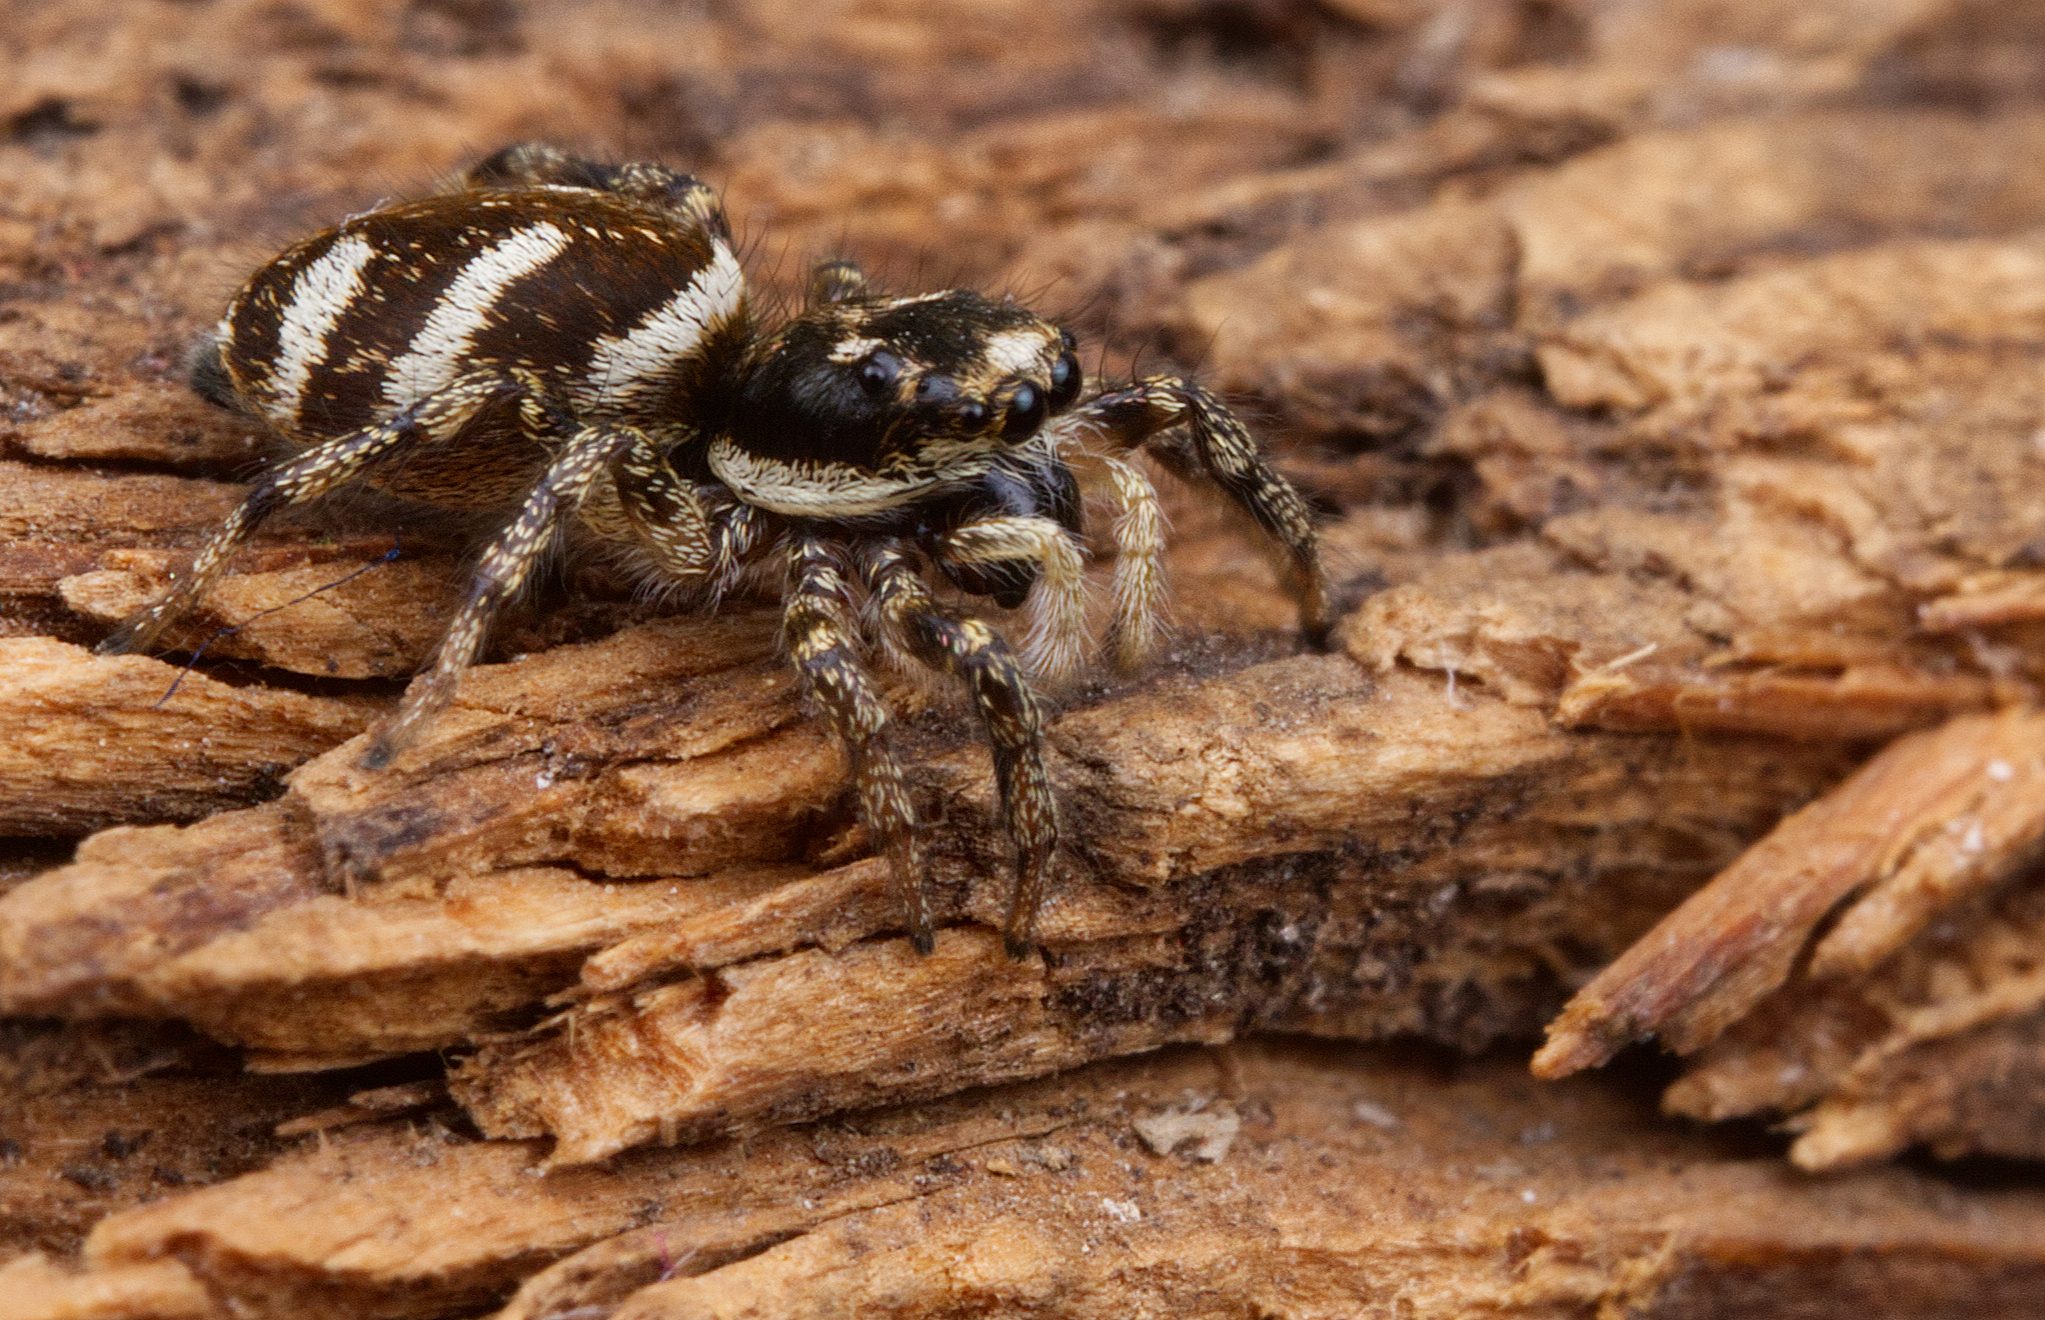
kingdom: Animalia
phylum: Arthropoda
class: Arachnida
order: Araneae
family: Salticidae
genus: Salticus
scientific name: Salticus scenicus
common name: Zebra jumper
